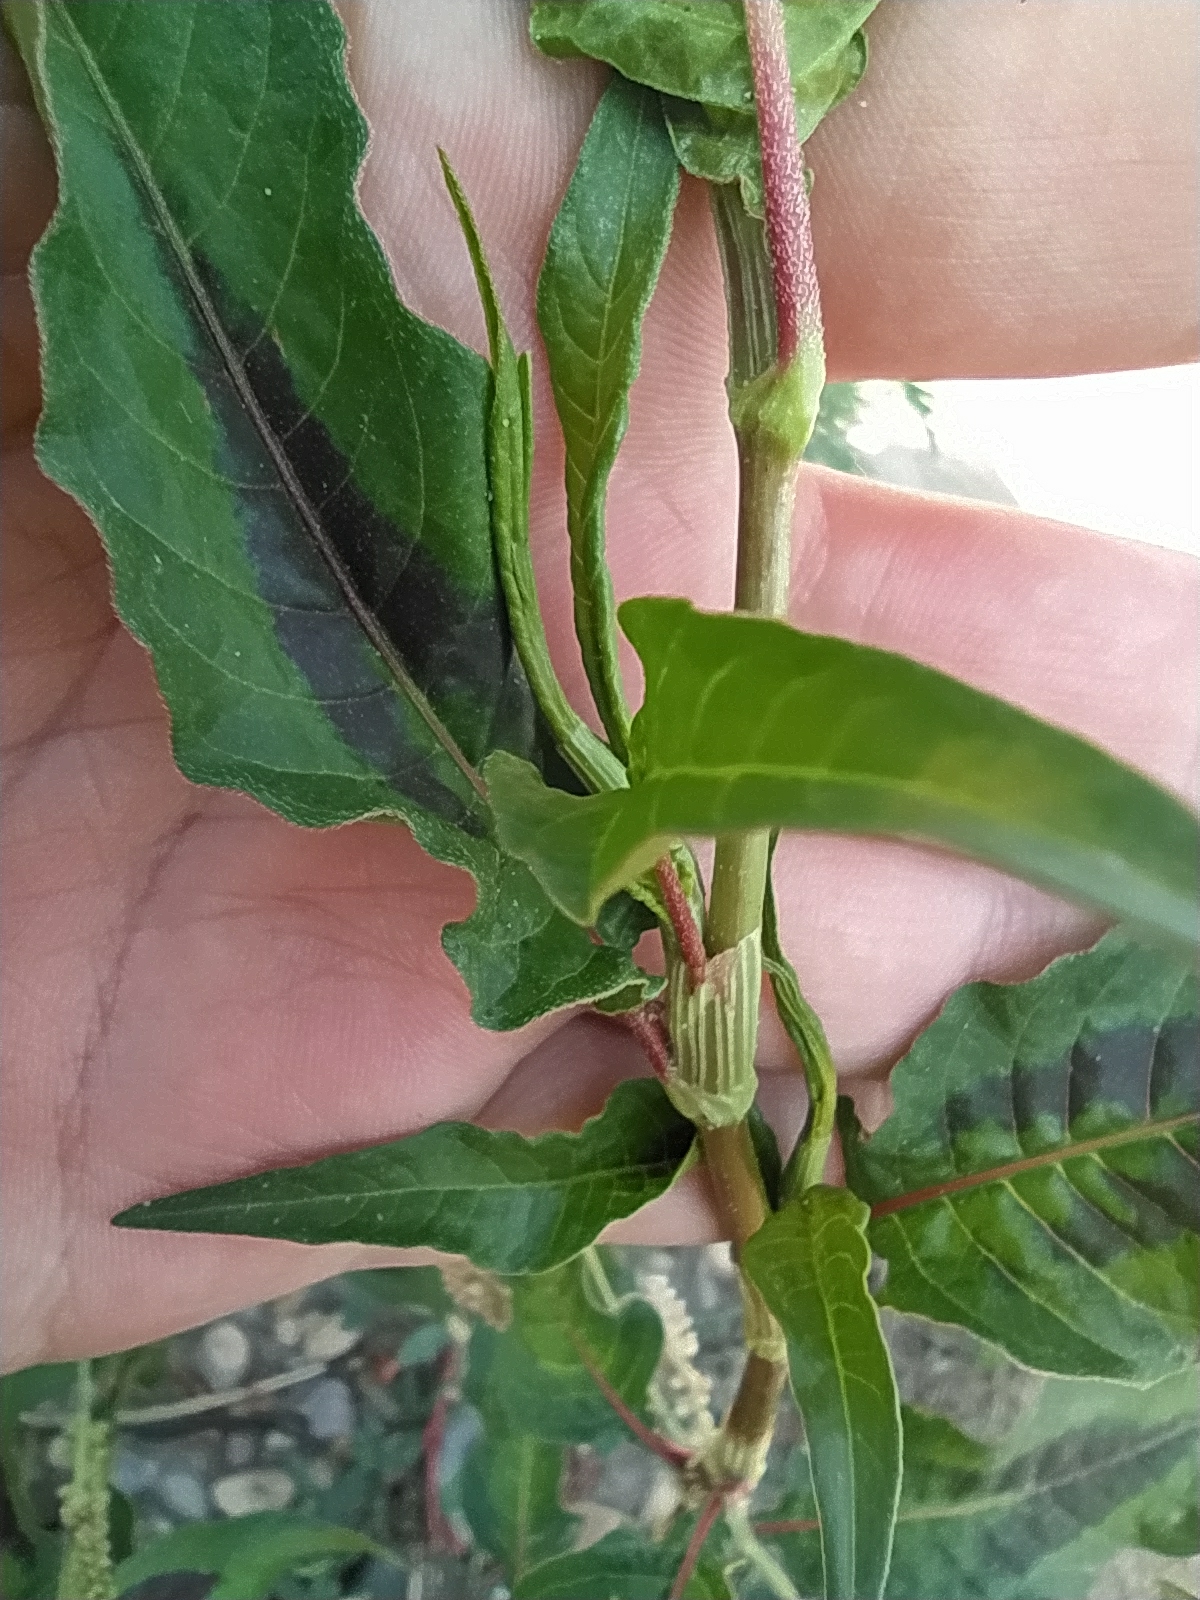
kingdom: Plantae
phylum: Tracheophyta
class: Magnoliopsida
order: Caryophyllales
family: Polygonaceae
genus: Persicaria
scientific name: Persicaria lapathifolia
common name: Curlytop knotweed
